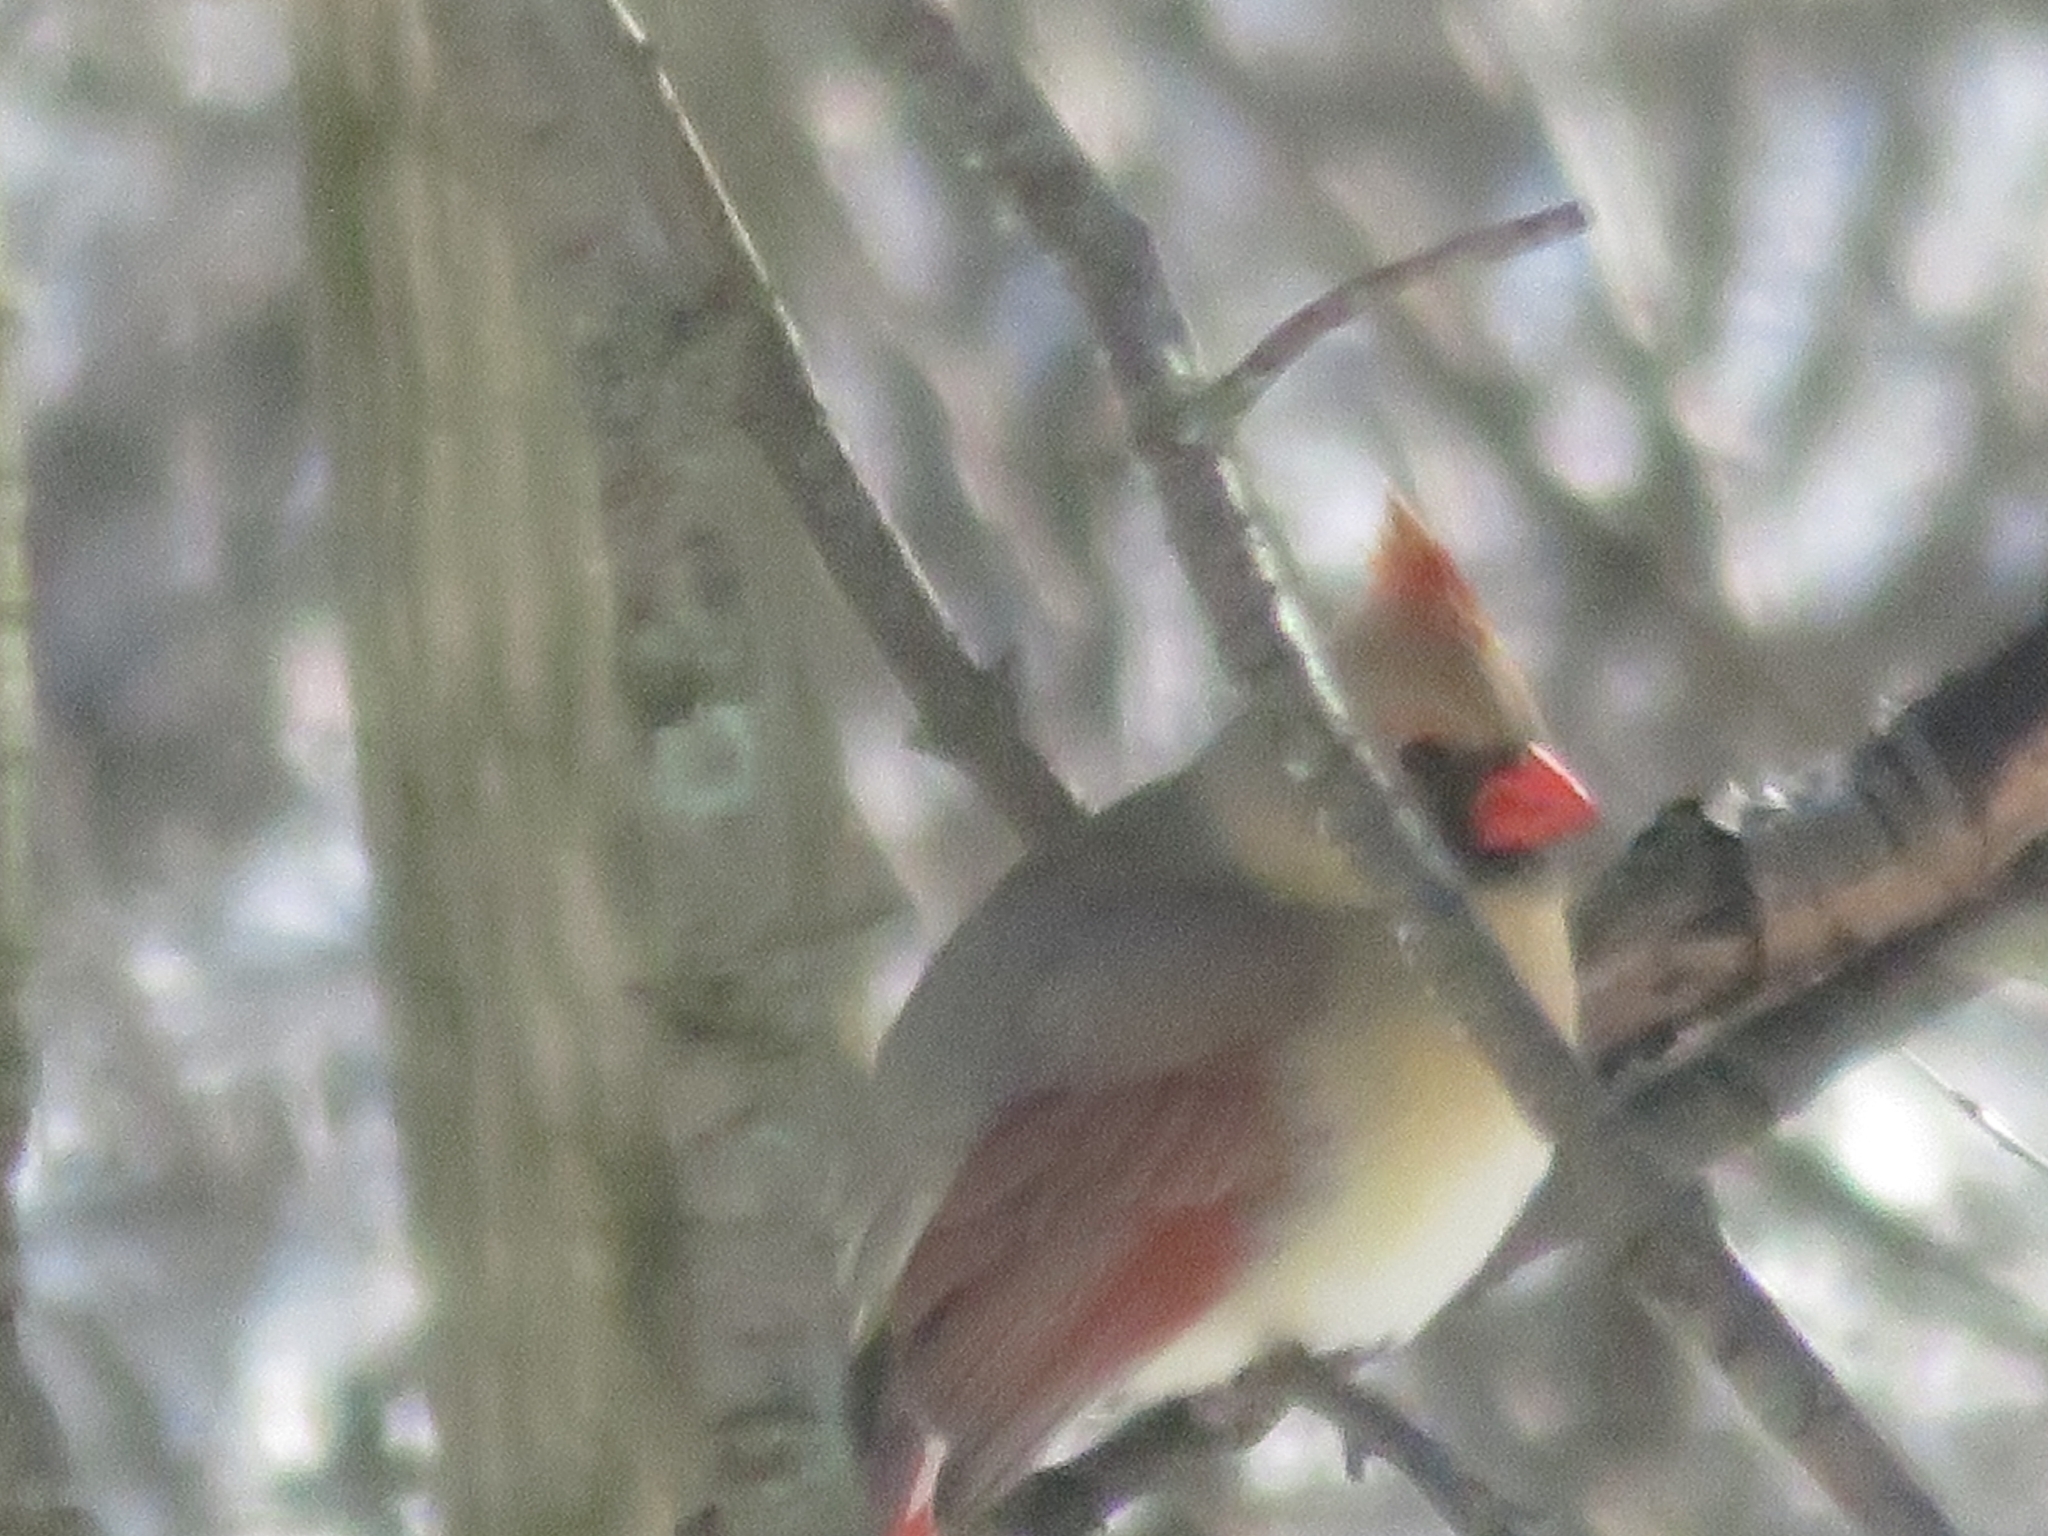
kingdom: Animalia
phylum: Chordata
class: Aves
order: Passeriformes
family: Cardinalidae
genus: Cardinalis
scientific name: Cardinalis cardinalis
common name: Northern cardinal
